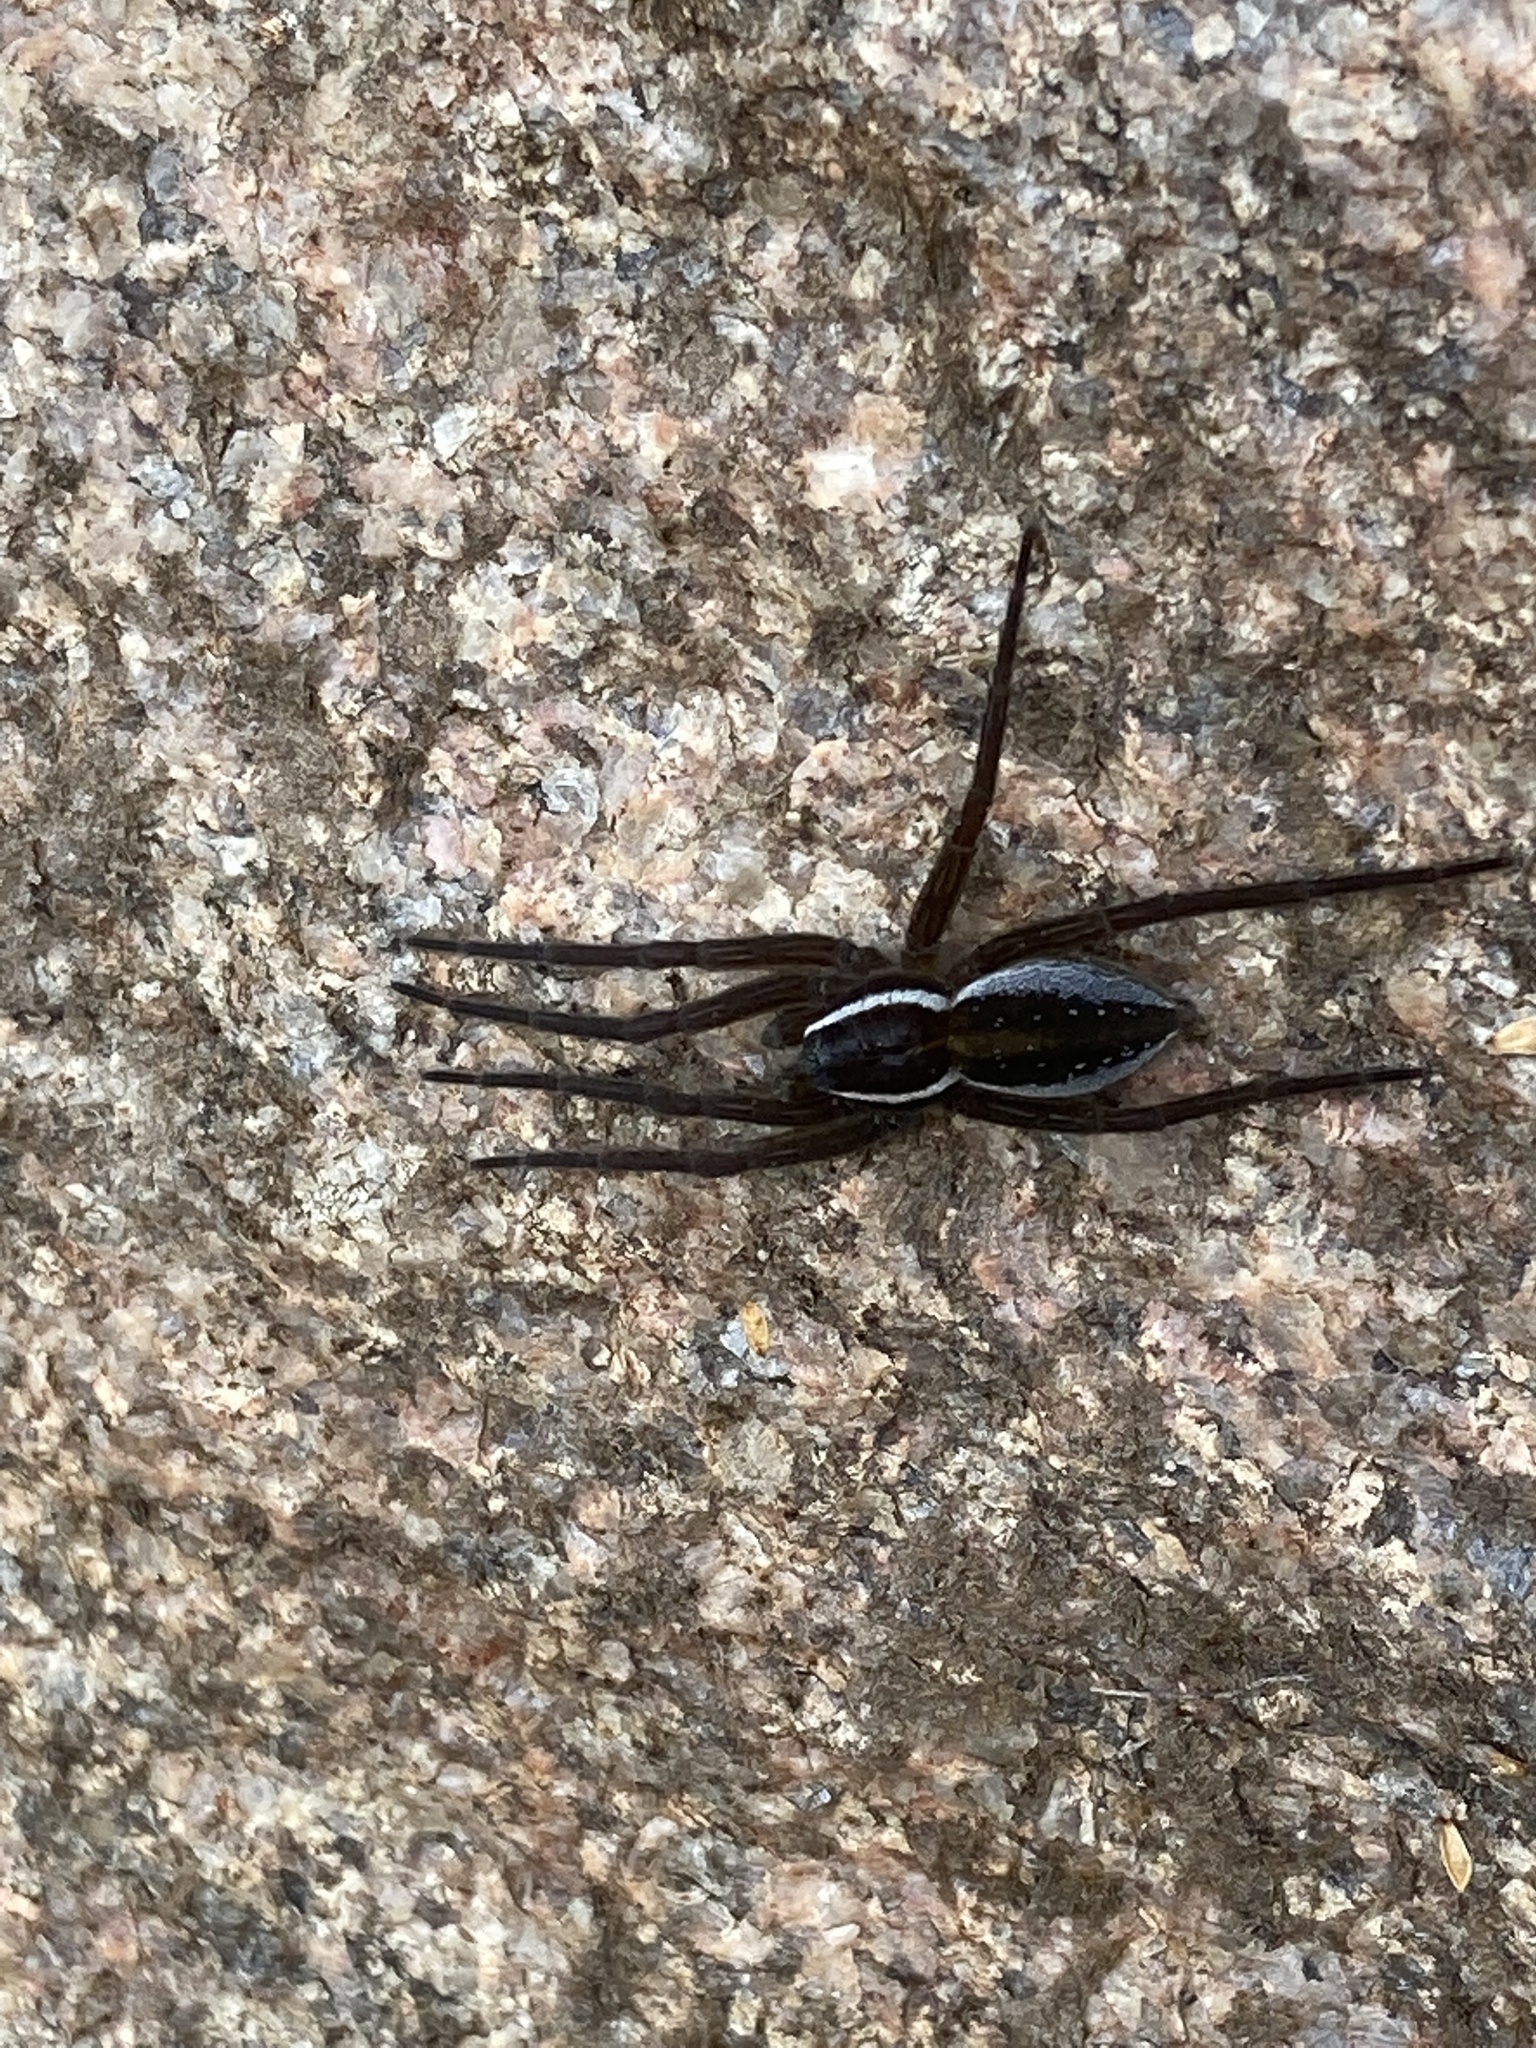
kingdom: Animalia
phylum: Arthropoda
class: Arachnida
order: Araneae
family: Pisauridae
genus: Dolomedes
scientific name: Dolomedes triton
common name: Six-spotted fishing spider
